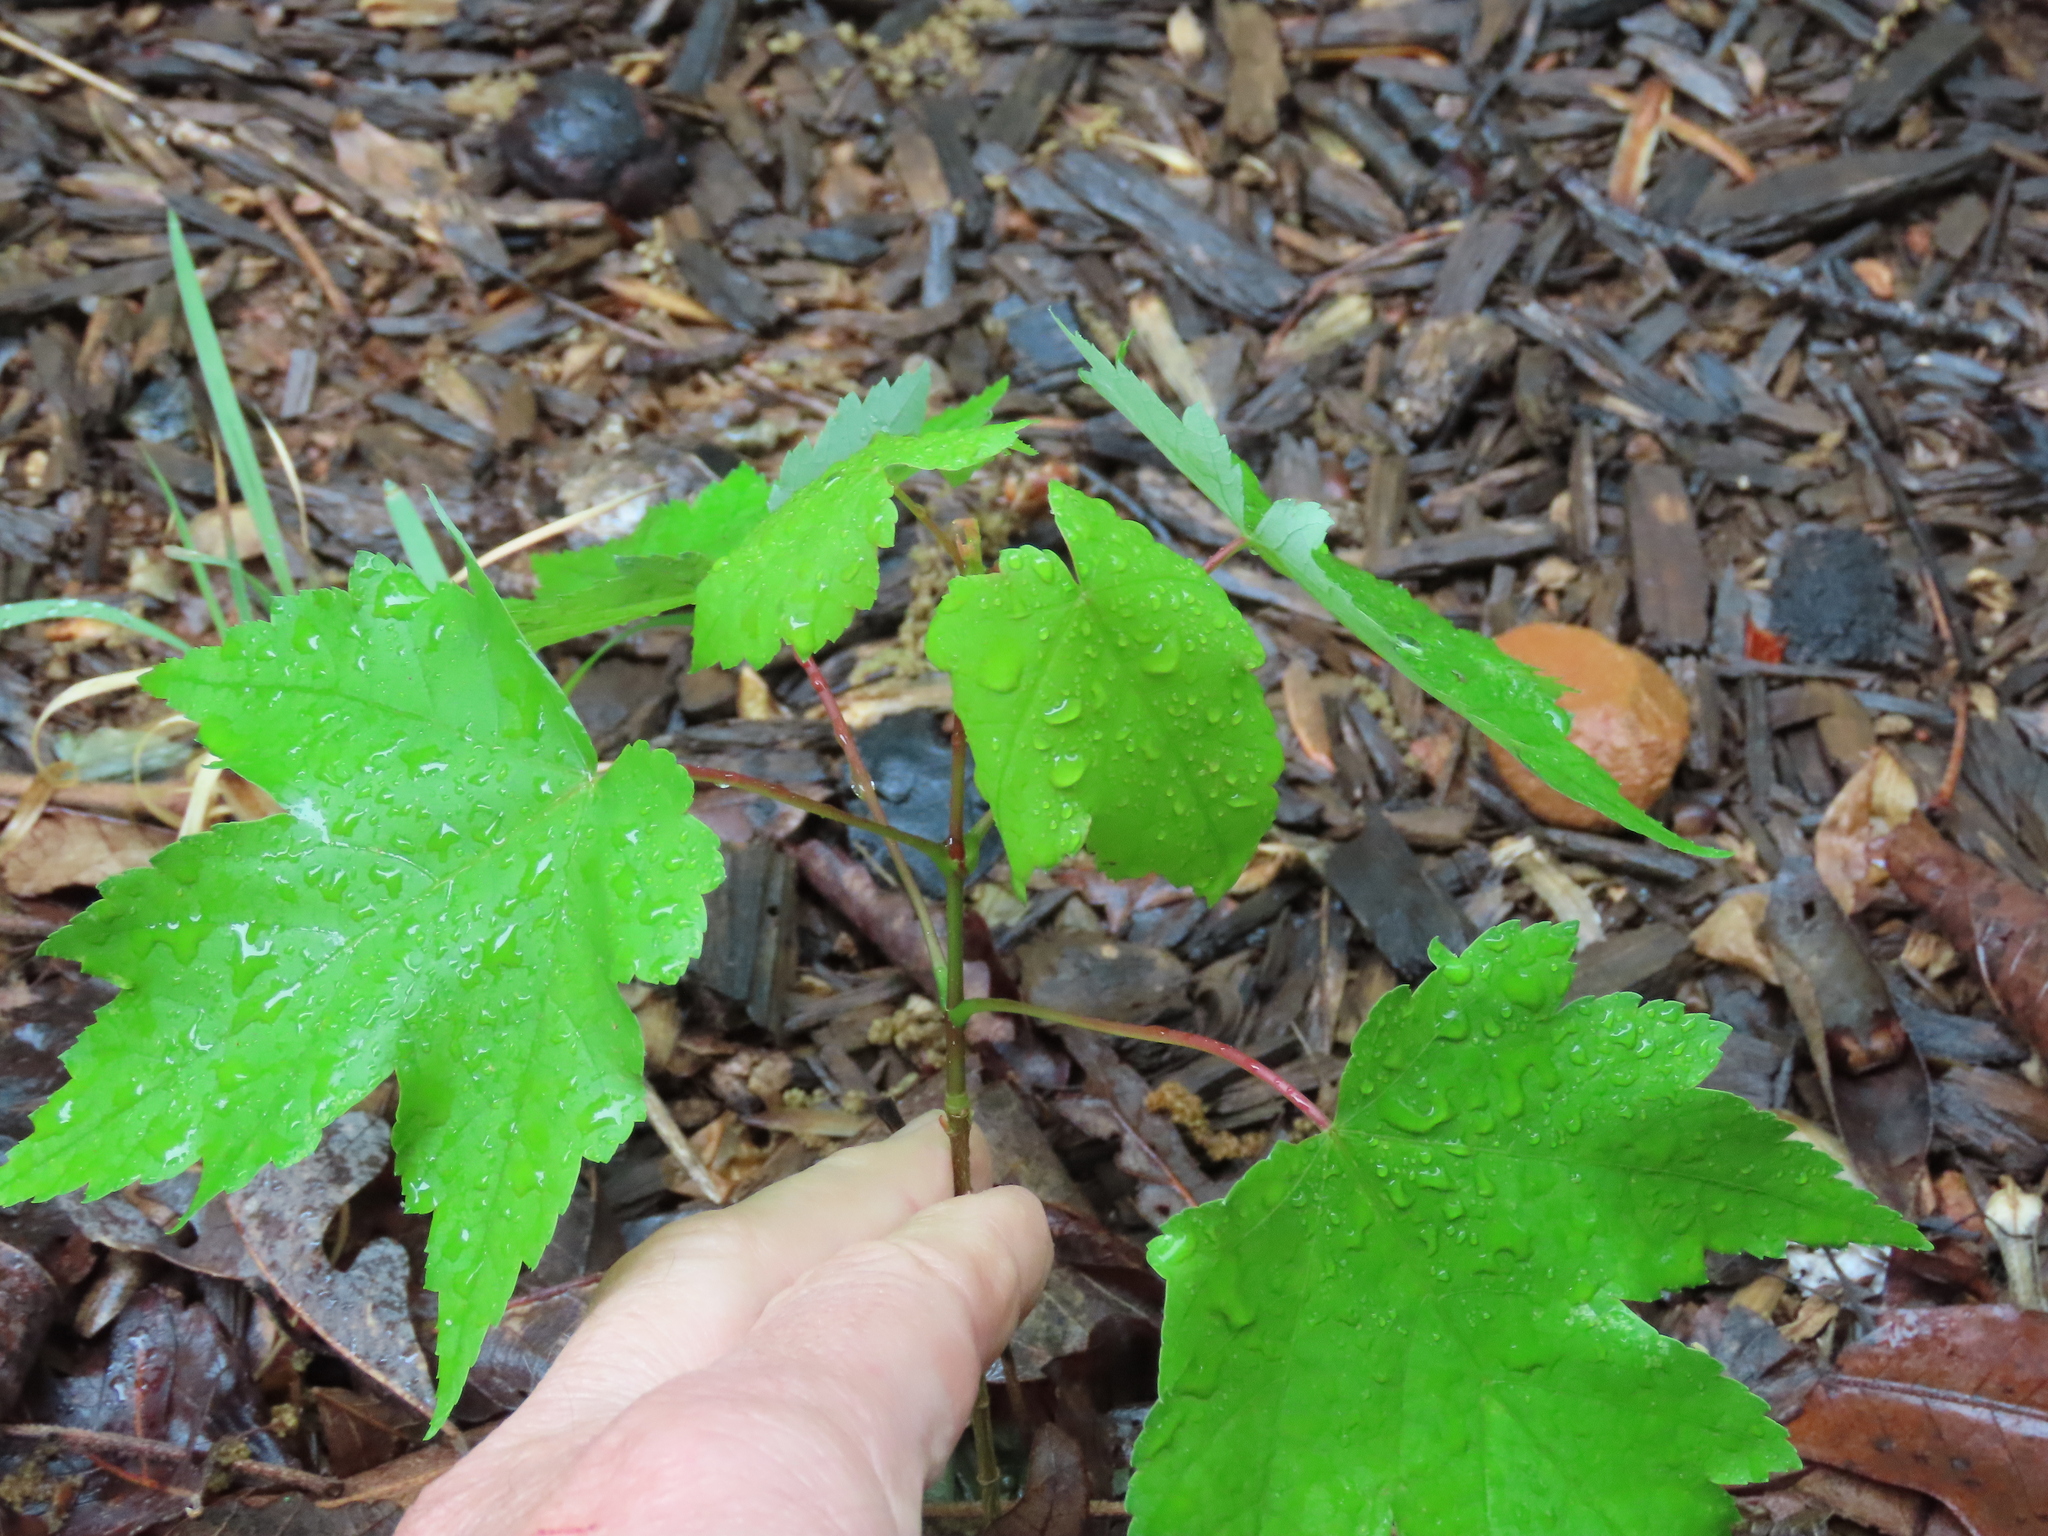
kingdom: Plantae
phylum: Tracheophyta
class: Magnoliopsida
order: Sapindales
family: Sapindaceae
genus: Acer
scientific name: Acer rubrum
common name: Red maple
